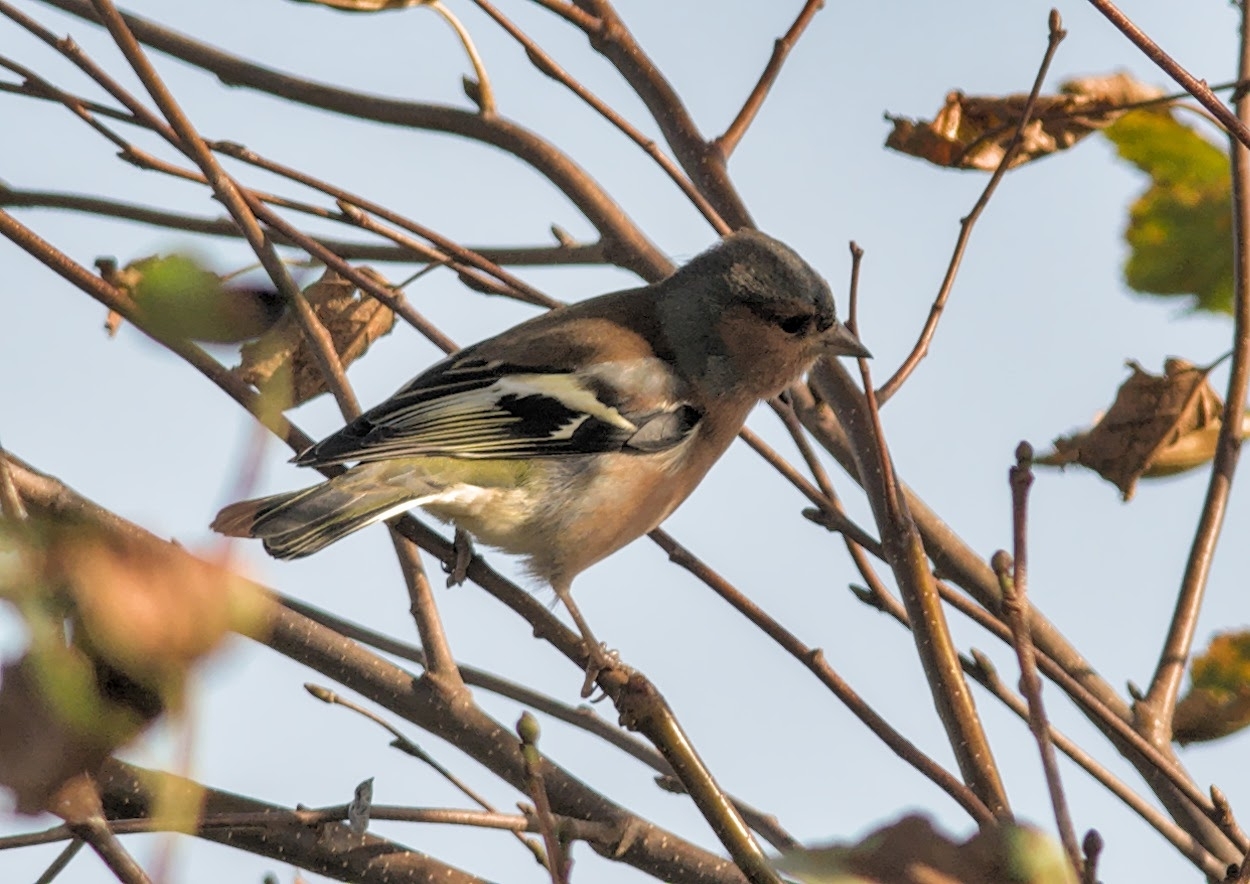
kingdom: Animalia
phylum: Chordata
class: Aves
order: Passeriformes
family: Fringillidae
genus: Fringilla
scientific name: Fringilla coelebs
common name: Common chaffinch
